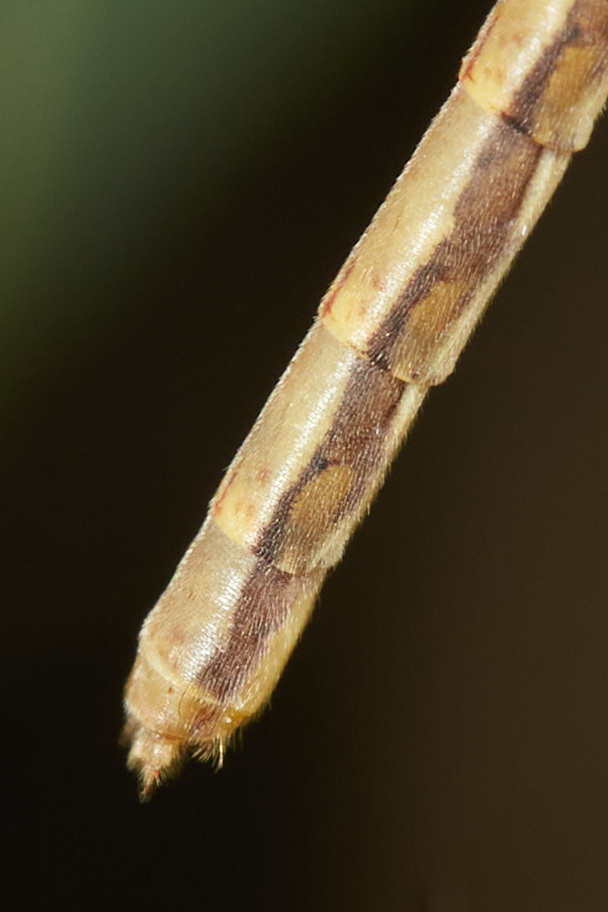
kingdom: Animalia
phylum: Arthropoda
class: Insecta
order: Mecoptera
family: Bittacidae
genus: Apterobittacus
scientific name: Apterobittacus apterus
